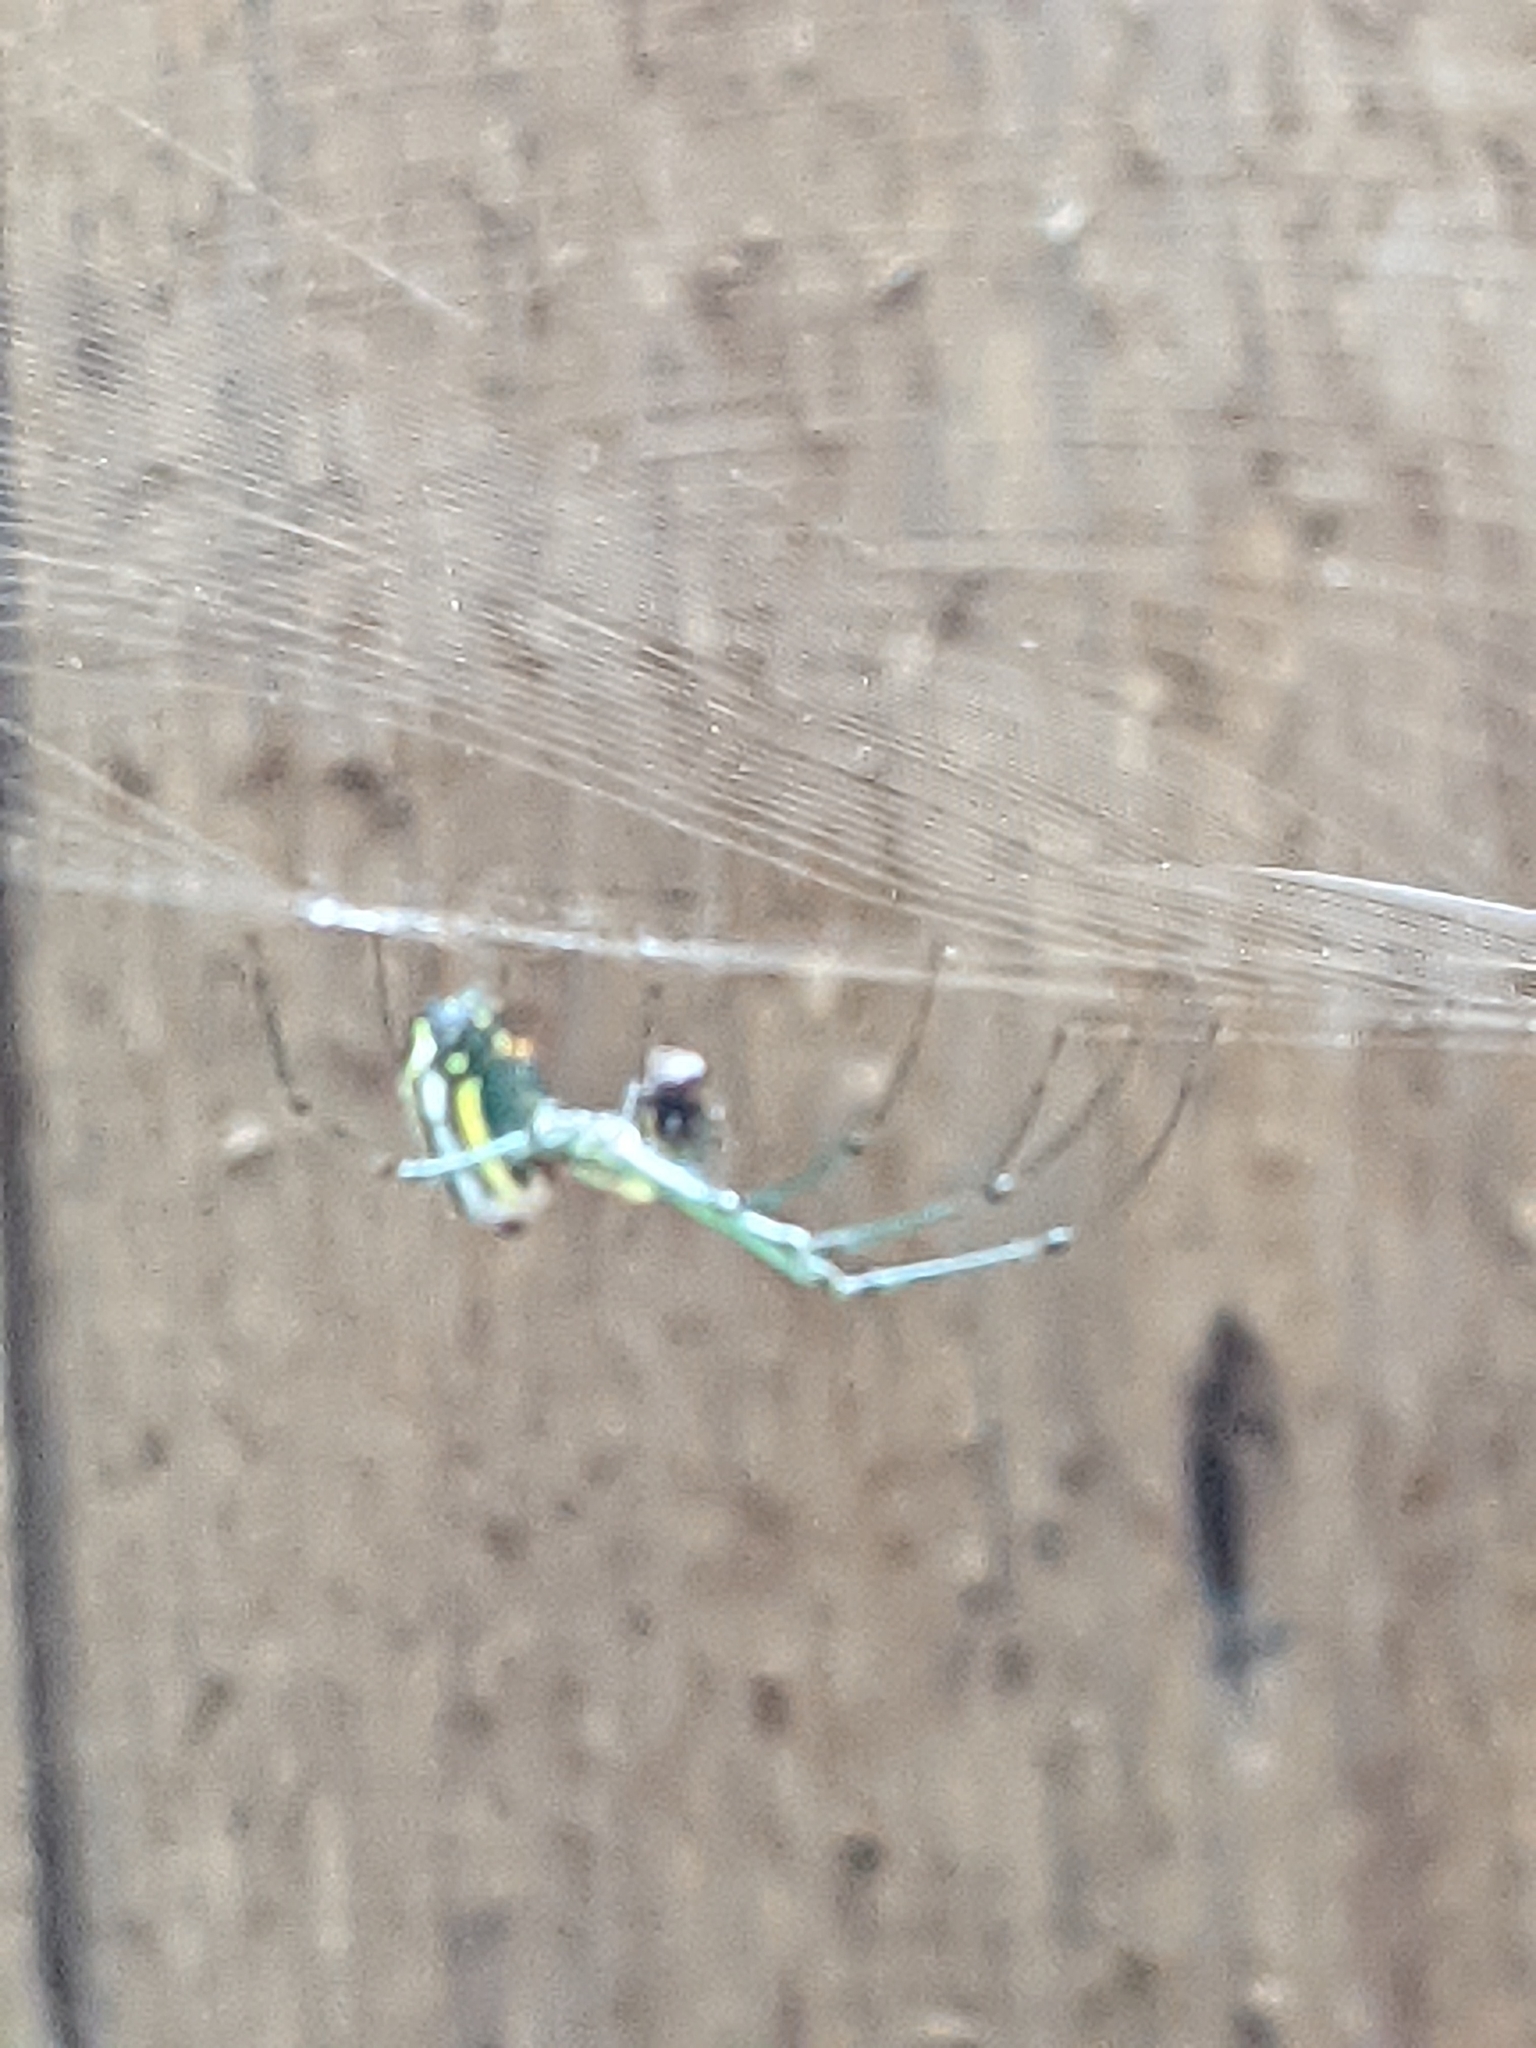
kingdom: Animalia
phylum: Arthropoda
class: Arachnida
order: Araneae
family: Tetragnathidae
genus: Leucauge
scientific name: Leucauge venusta
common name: Longjawed orb weavers
